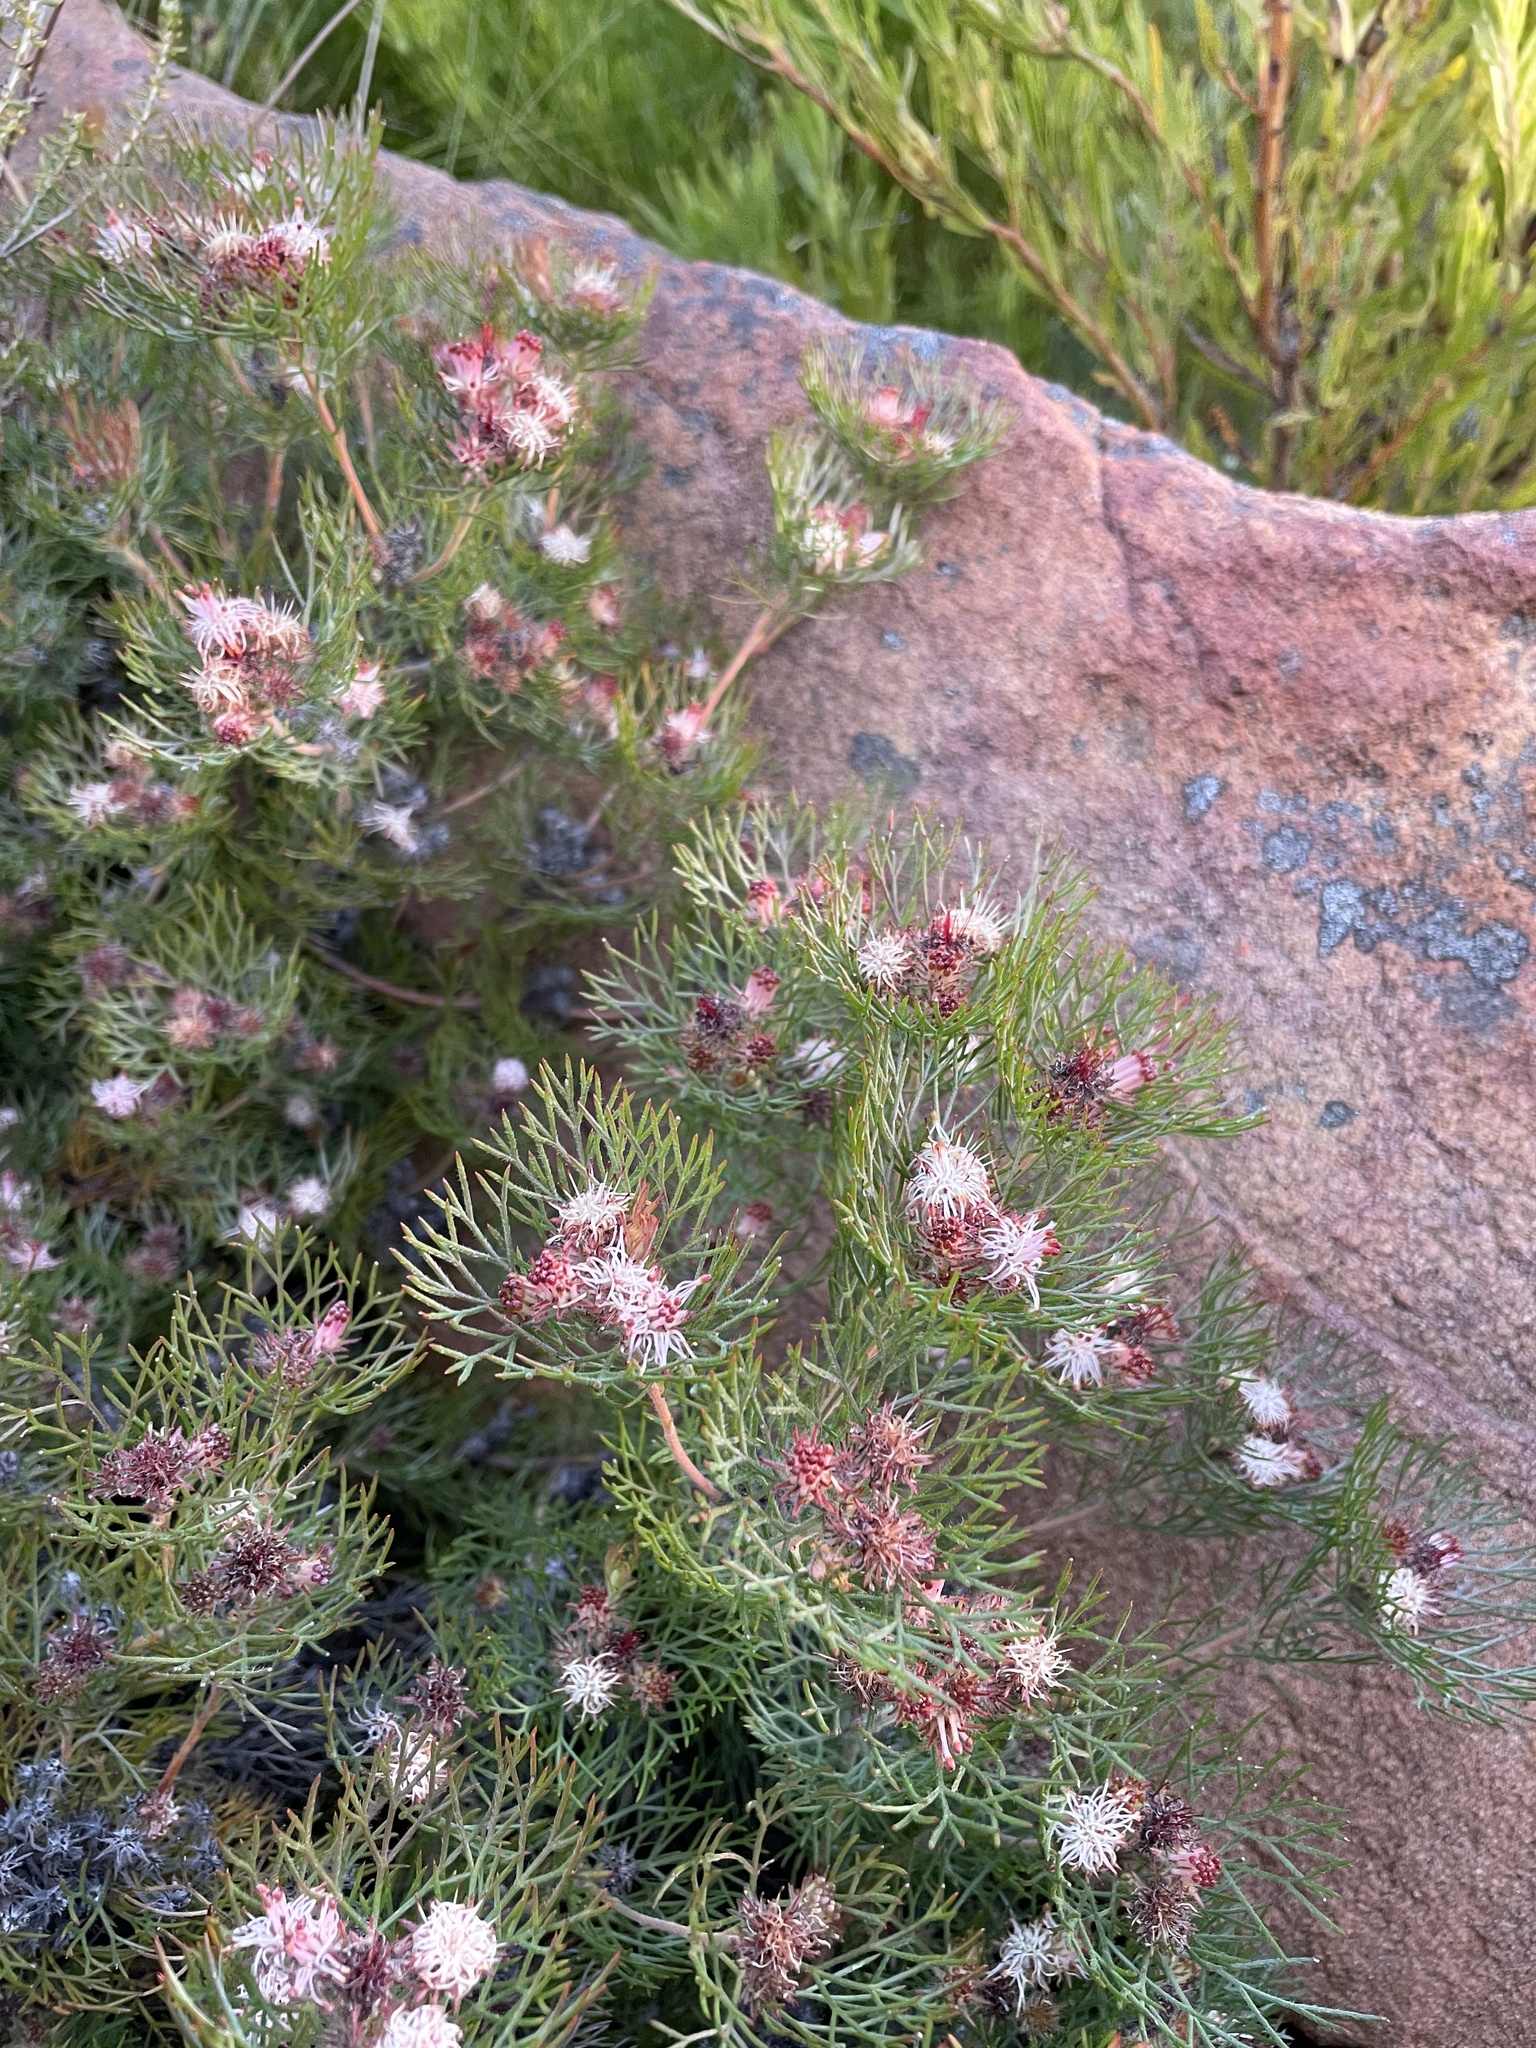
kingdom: Plantae
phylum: Tracheophyta
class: Magnoliopsida
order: Proteales
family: Proteaceae
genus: Serruria
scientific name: Serruria fasciflora
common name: Common pin spiderhead
